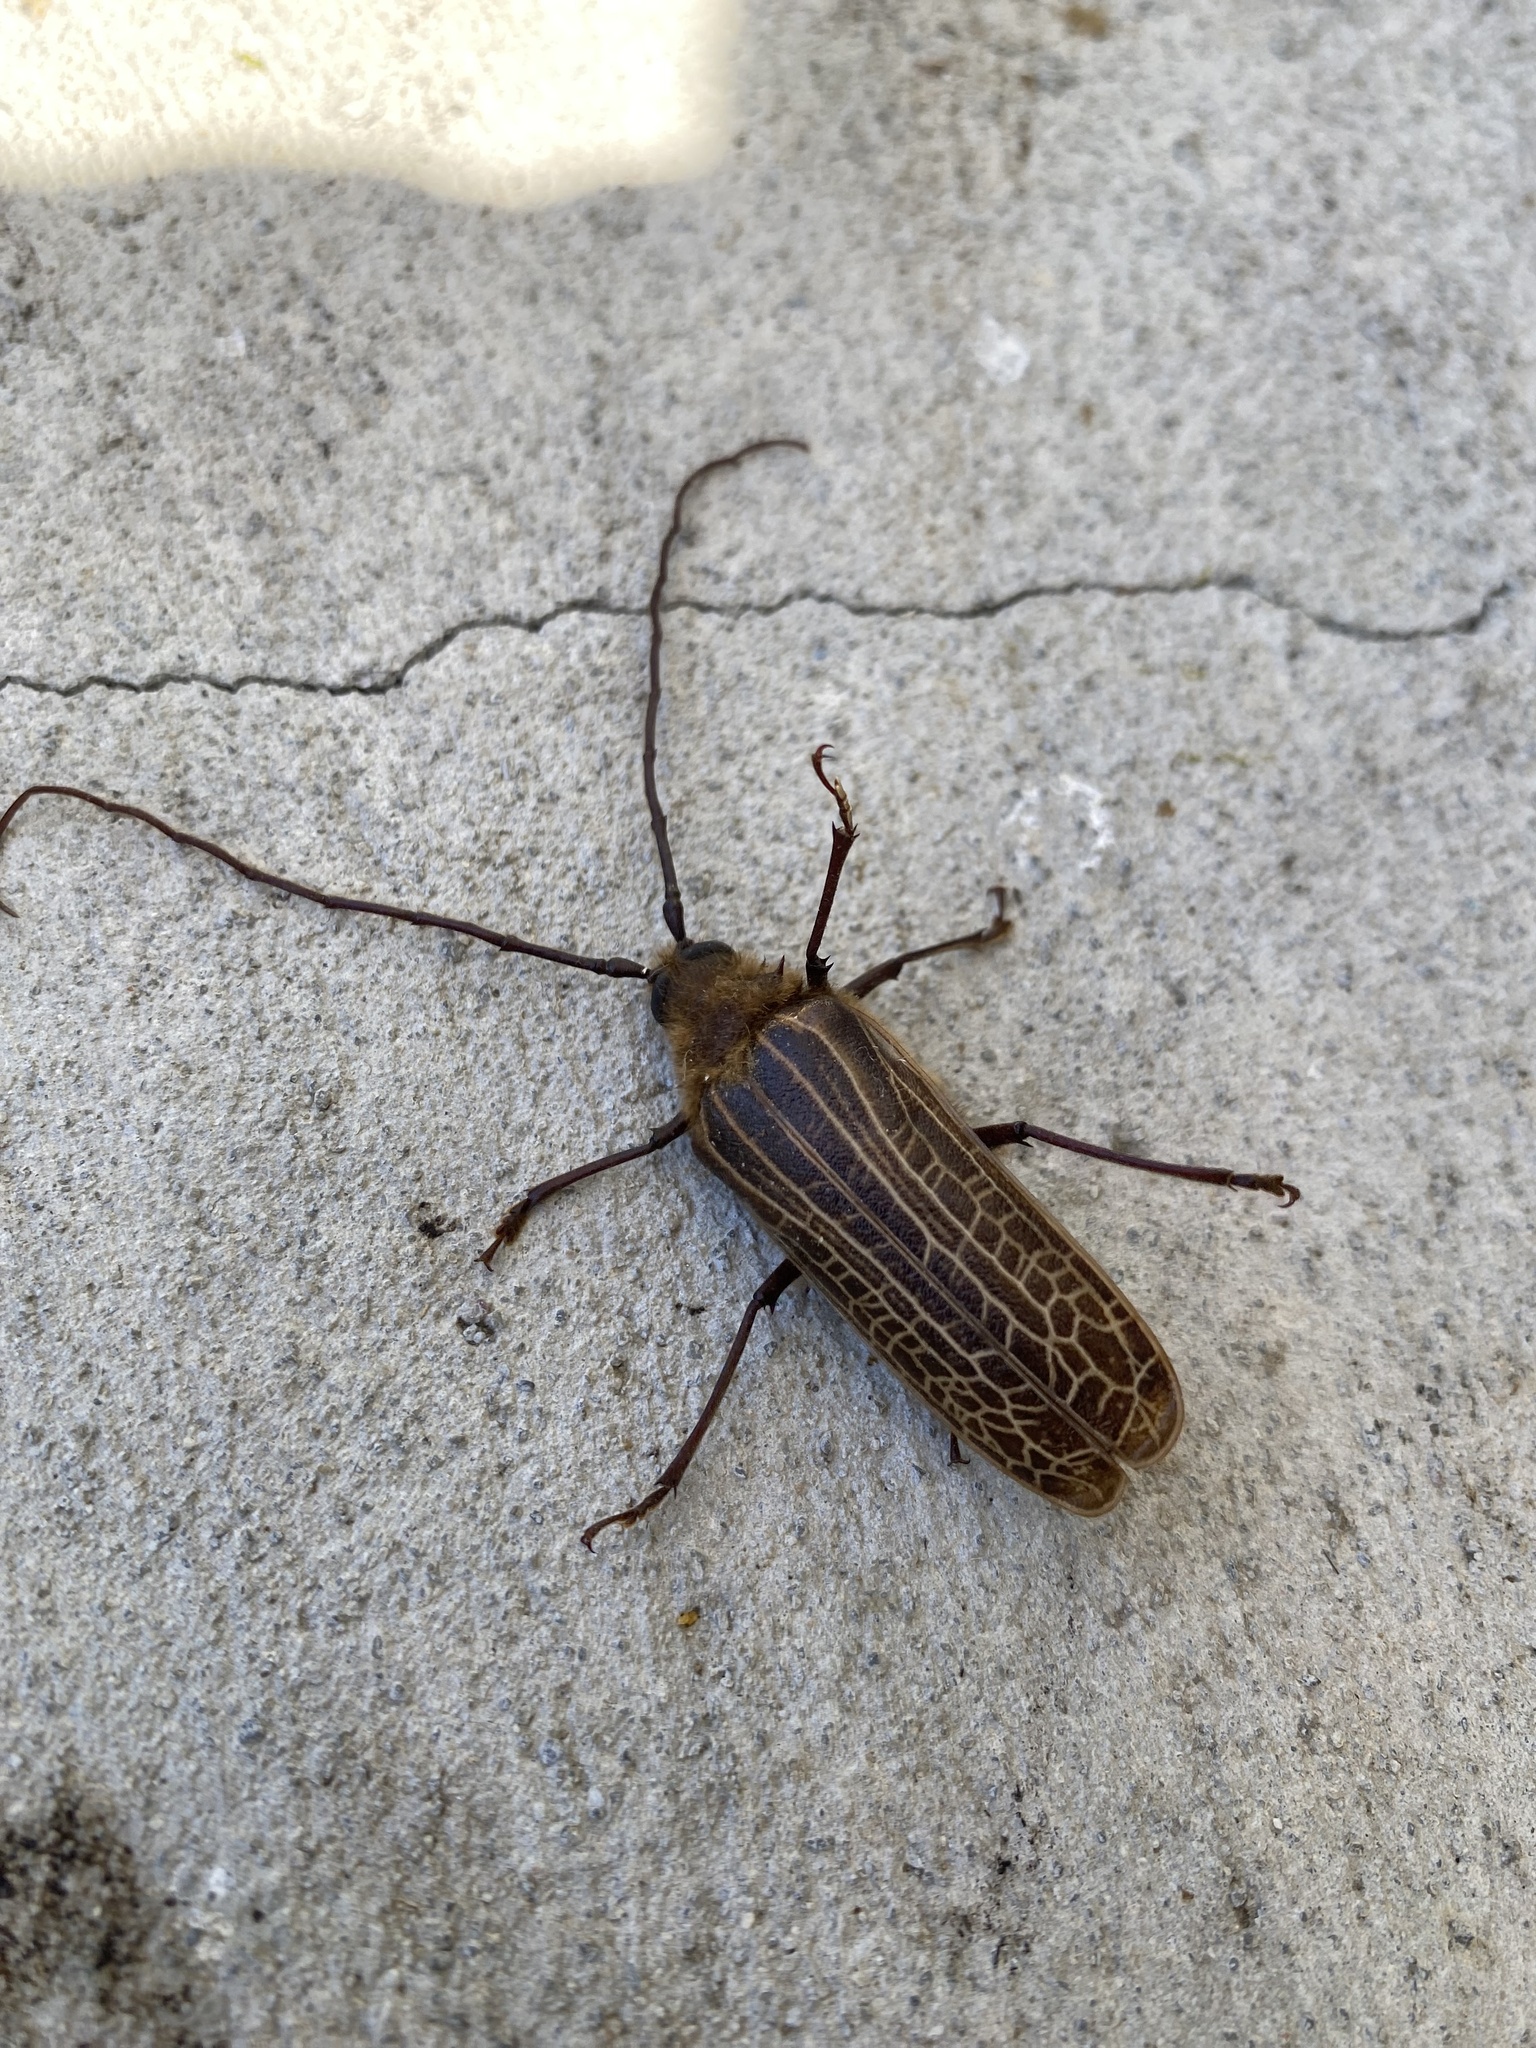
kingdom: Animalia
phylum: Arthropoda
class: Insecta
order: Coleoptera
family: Cerambycidae
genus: Prionoplus
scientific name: Prionoplus reticularis
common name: Huhu beetle
